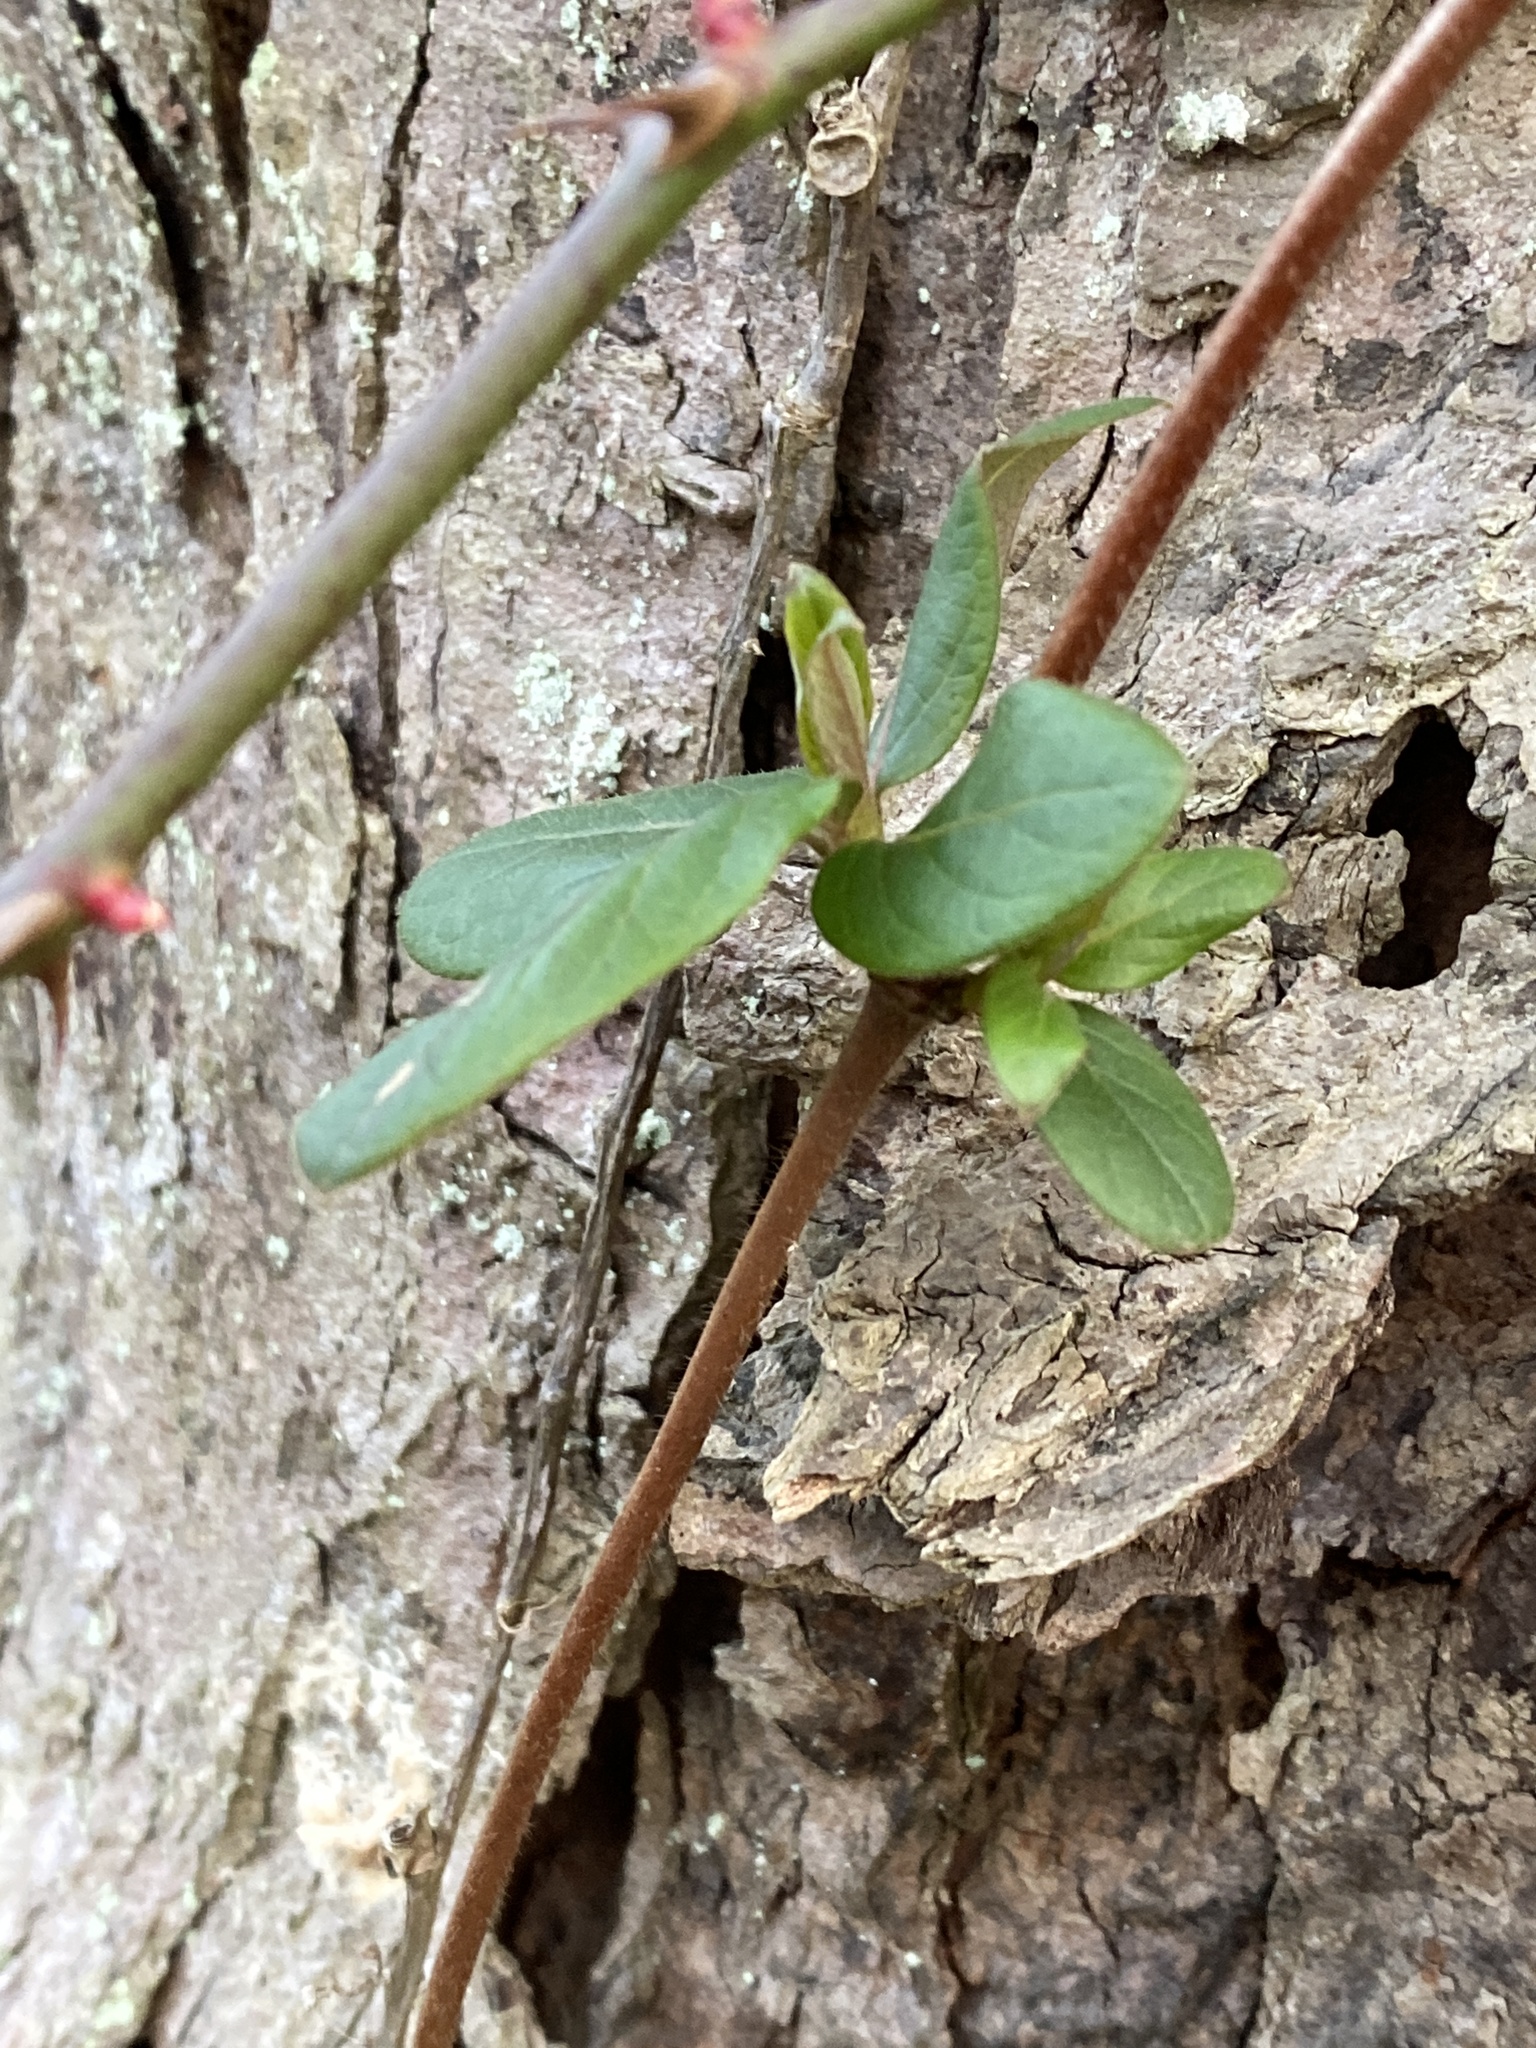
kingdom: Plantae
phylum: Tracheophyta
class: Magnoliopsida
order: Dipsacales
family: Caprifoliaceae
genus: Lonicera
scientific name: Lonicera japonica
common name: Japanese honeysuckle
